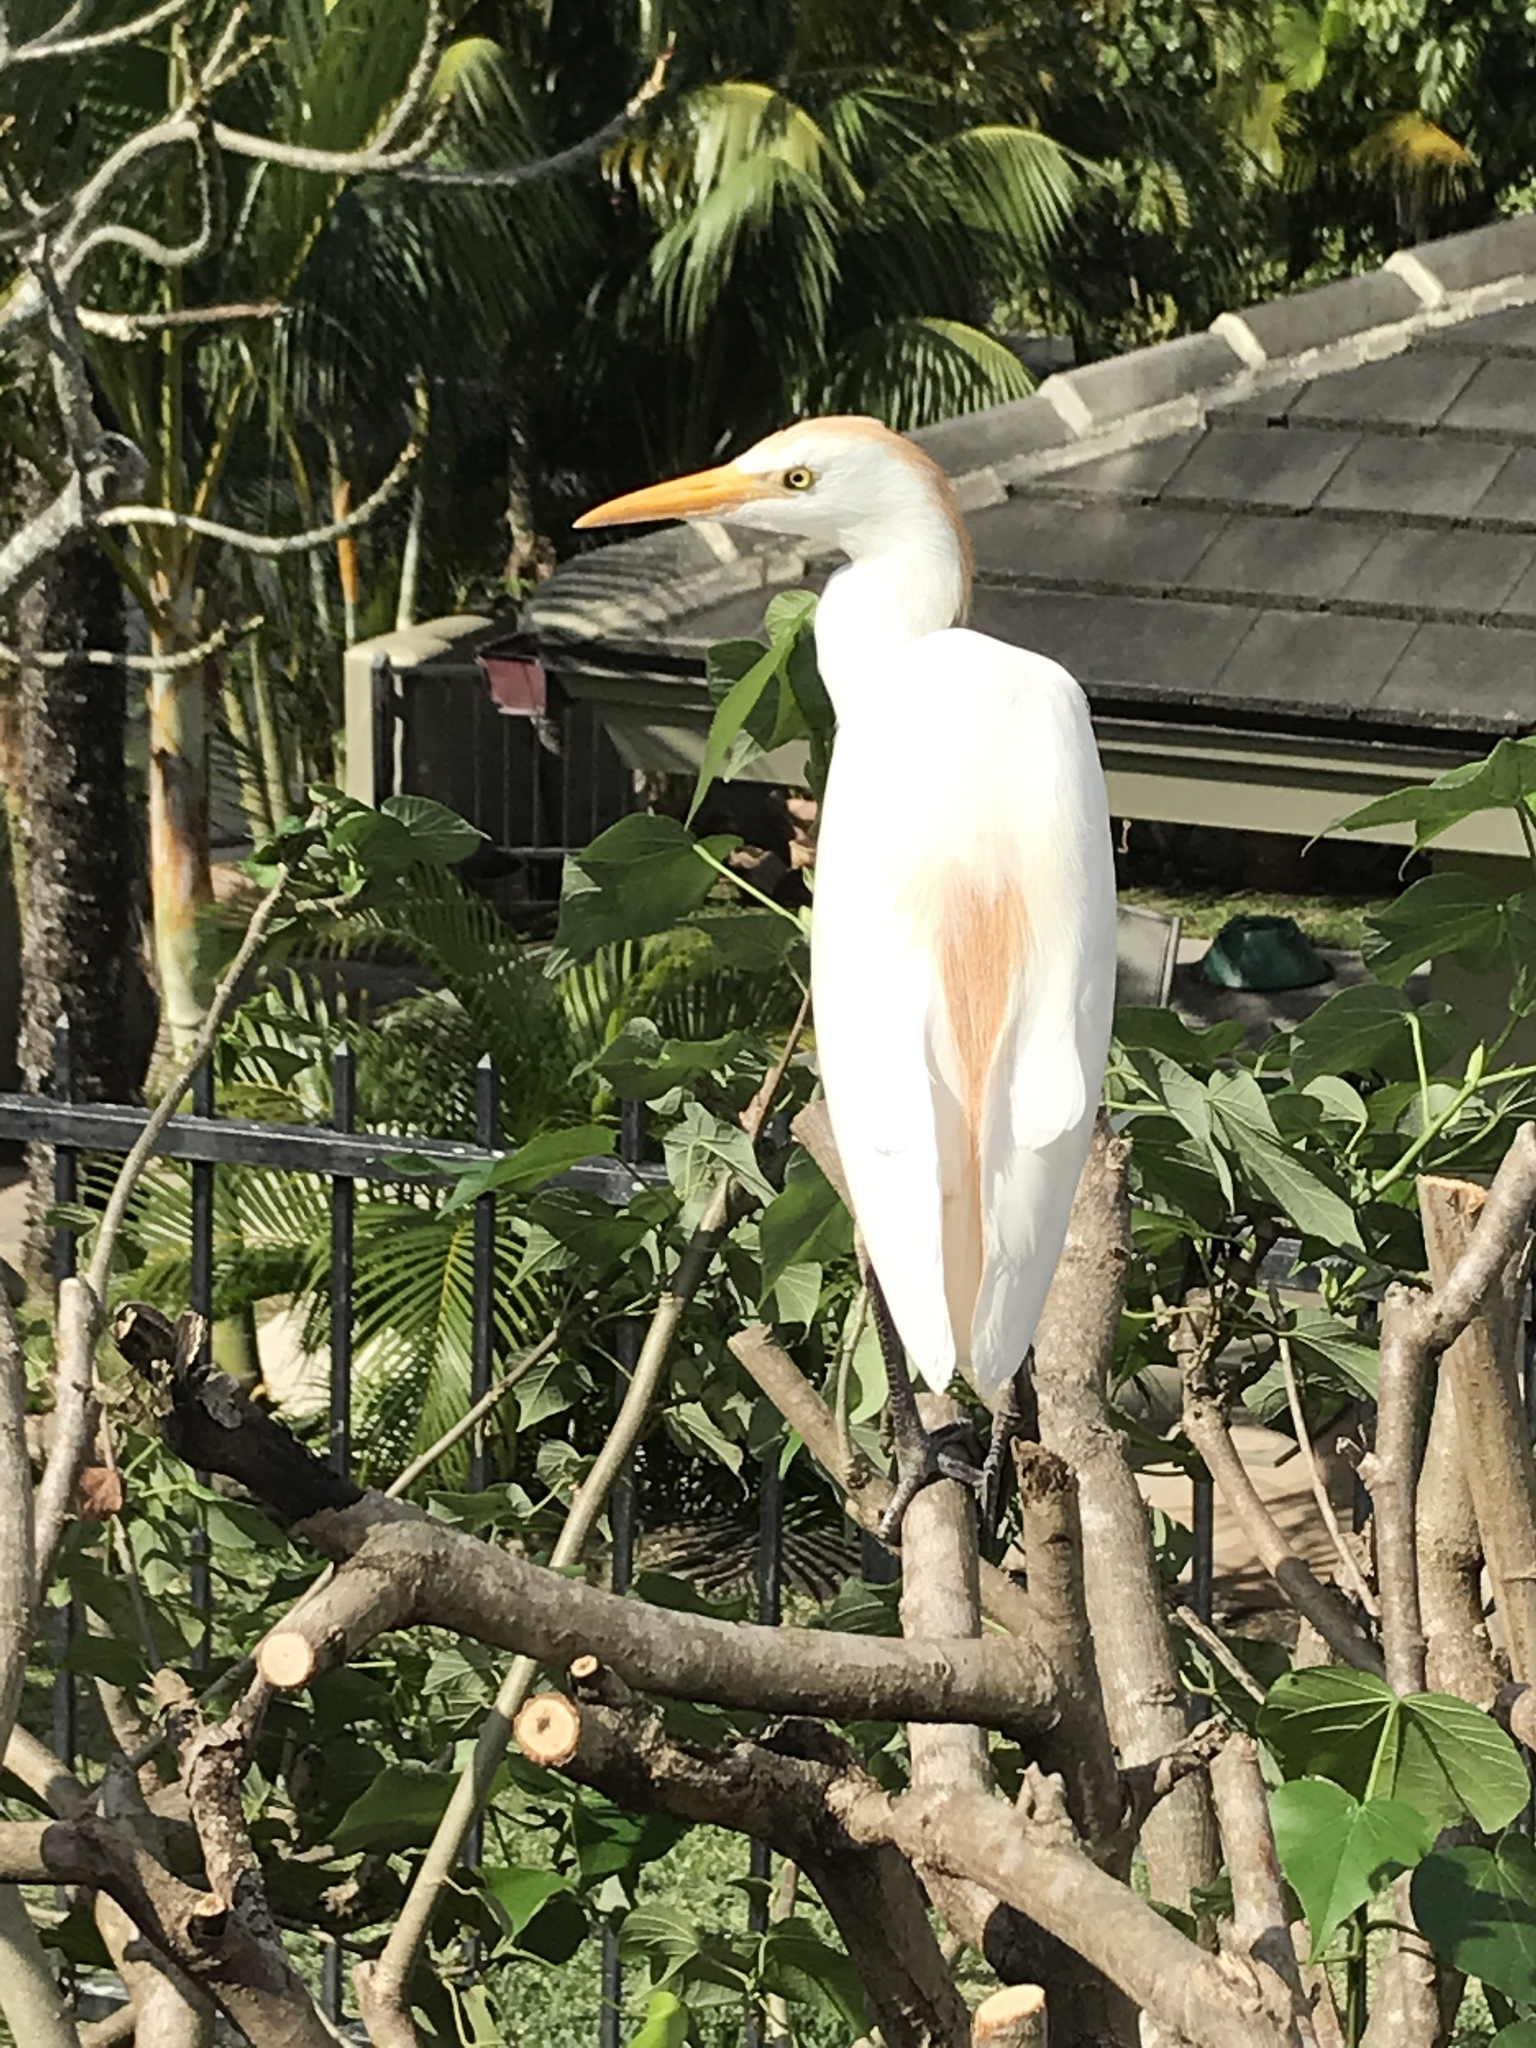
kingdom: Animalia
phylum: Chordata
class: Aves
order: Pelecaniformes
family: Ardeidae
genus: Bubulcus
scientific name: Bubulcus ibis
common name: Cattle egret
